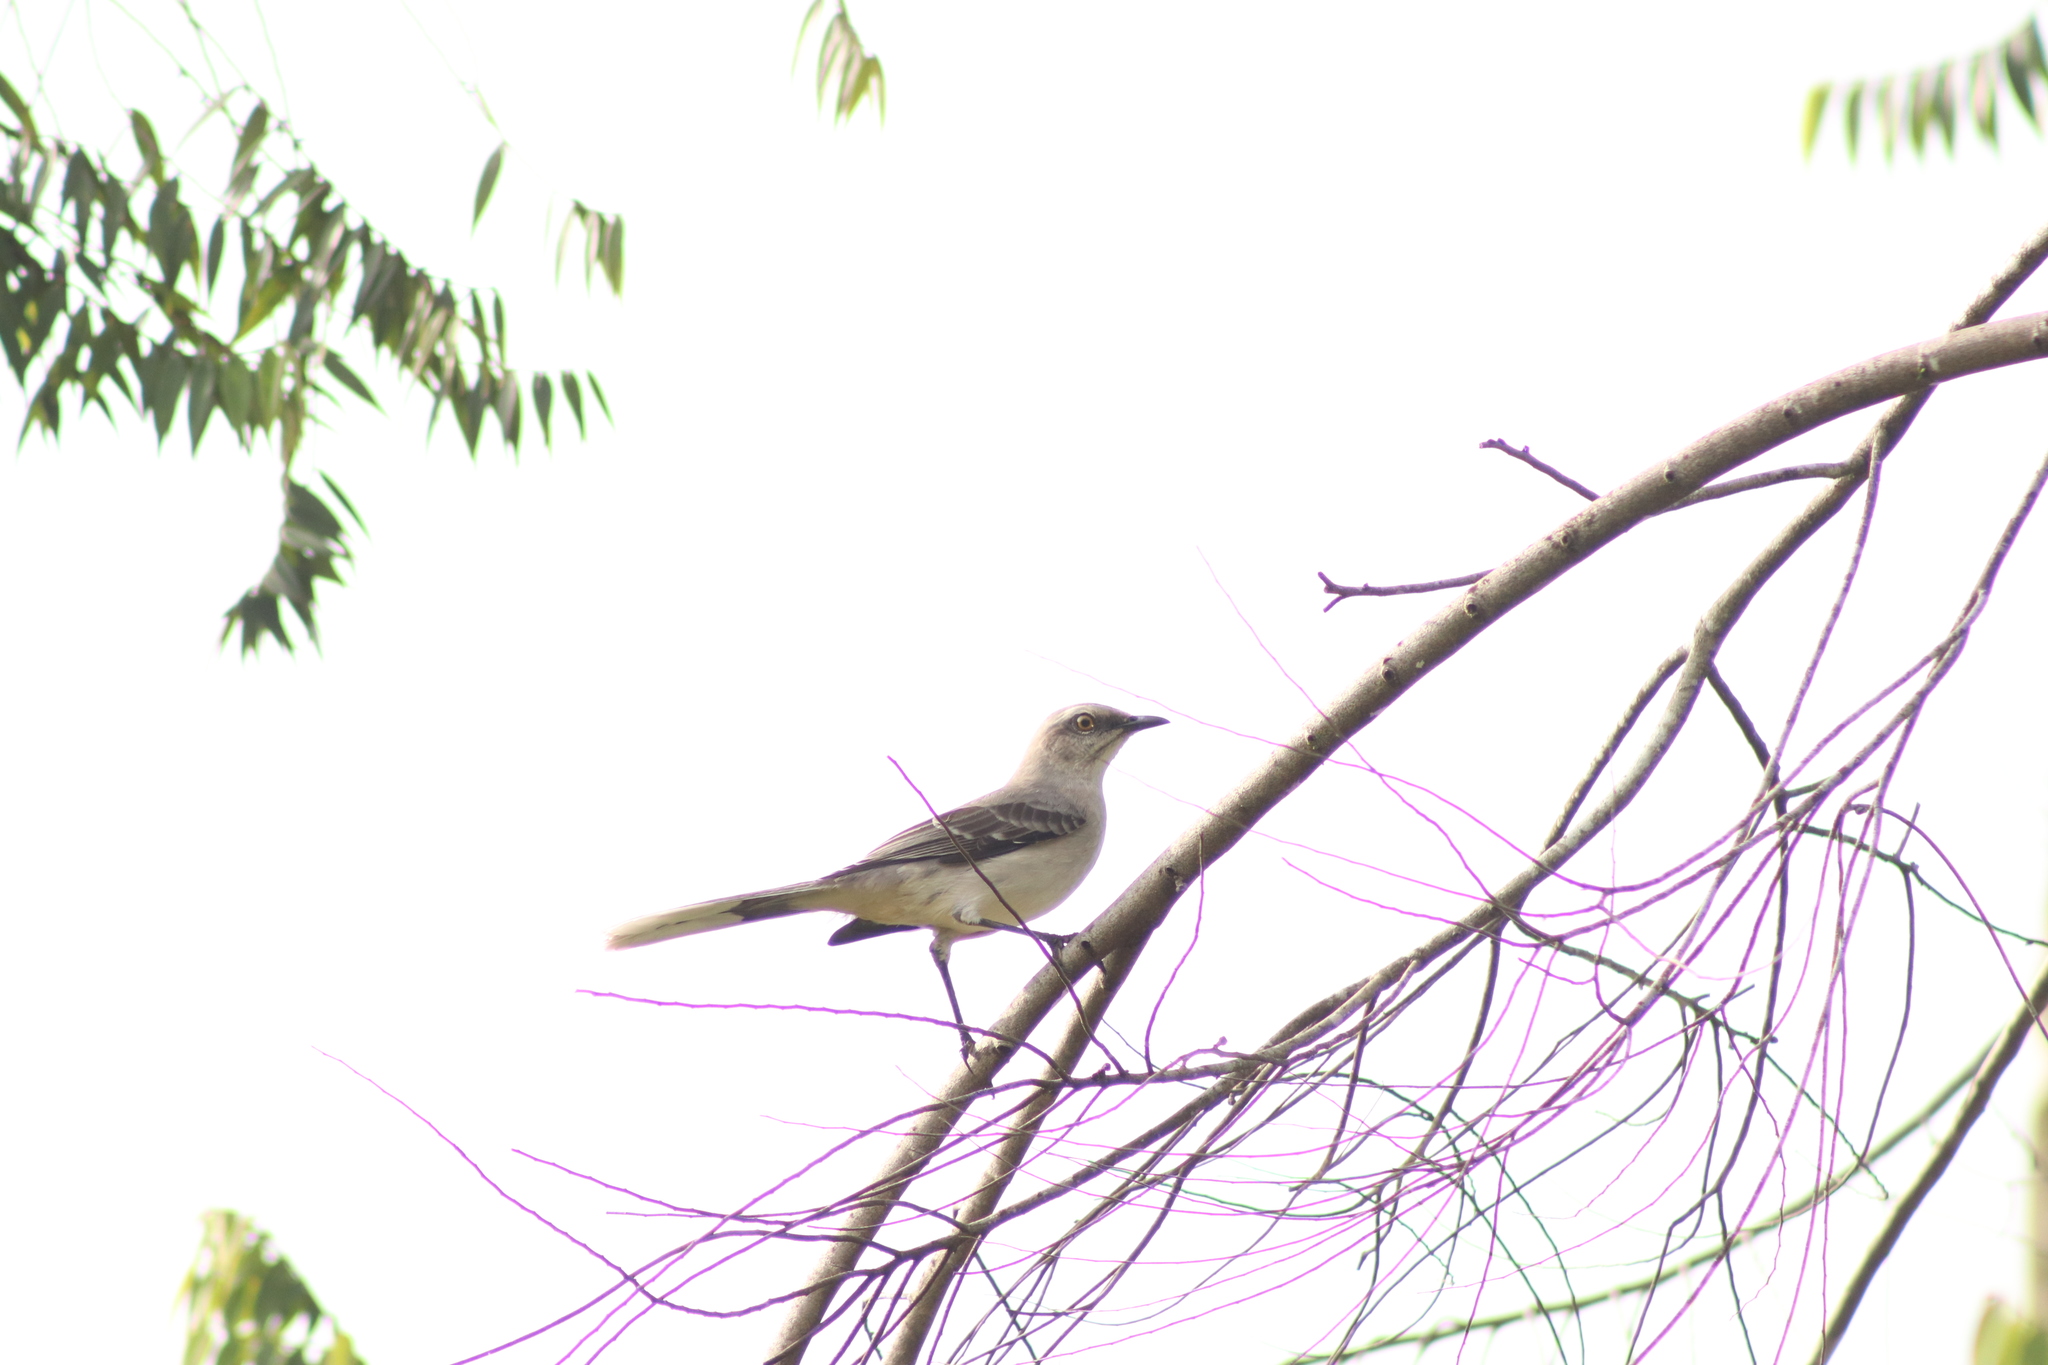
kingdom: Animalia
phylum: Chordata
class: Aves
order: Passeriformes
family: Mimidae
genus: Mimus
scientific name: Mimus gilvus
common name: Tropical mockingbird
